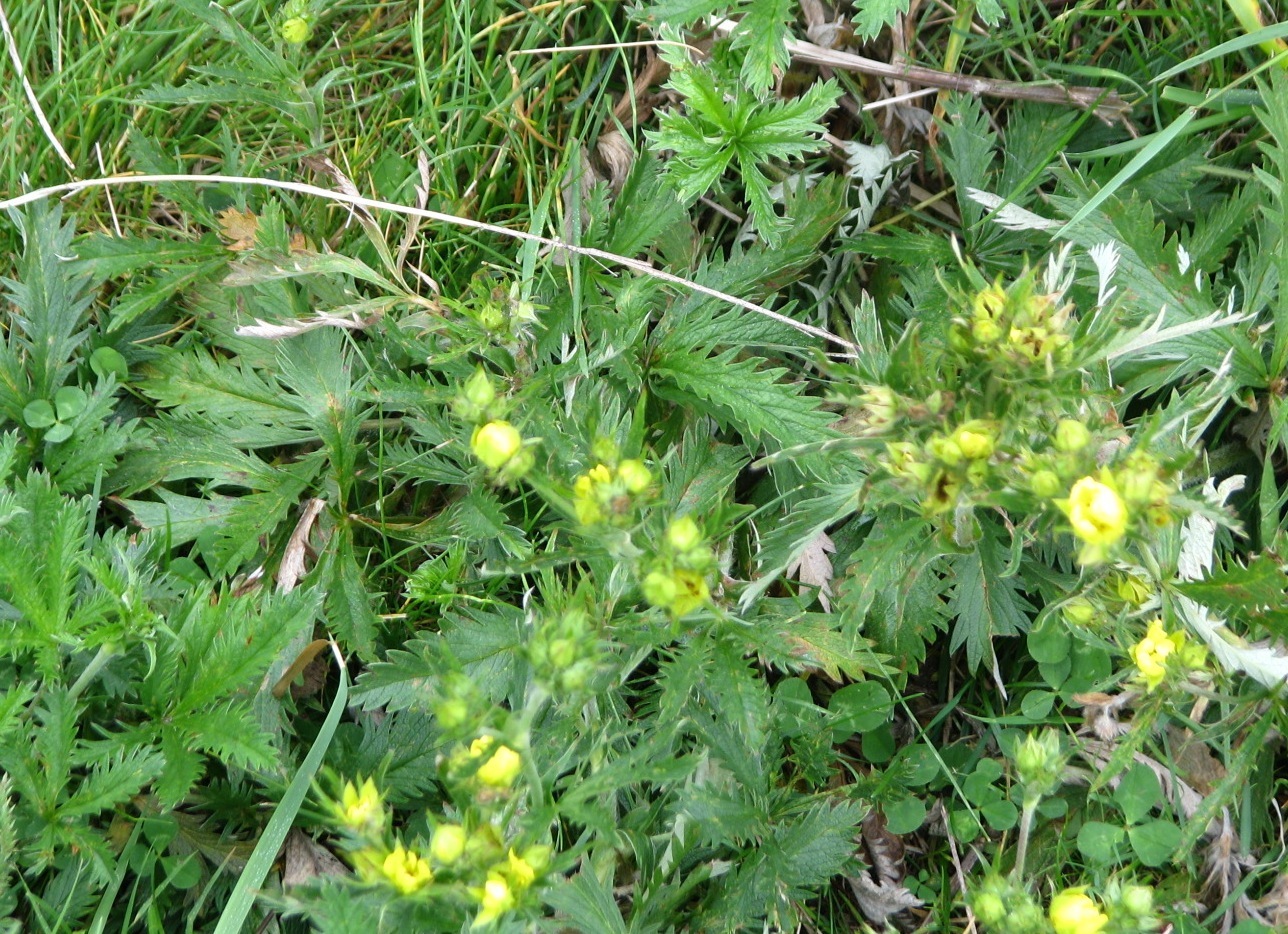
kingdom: Plantae
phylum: Tracheophyta
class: Magnoliopsida
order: Rosales
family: Rosaceae
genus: Potentilla
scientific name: Potentilla gracilis
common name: Graceful cinquefoil
